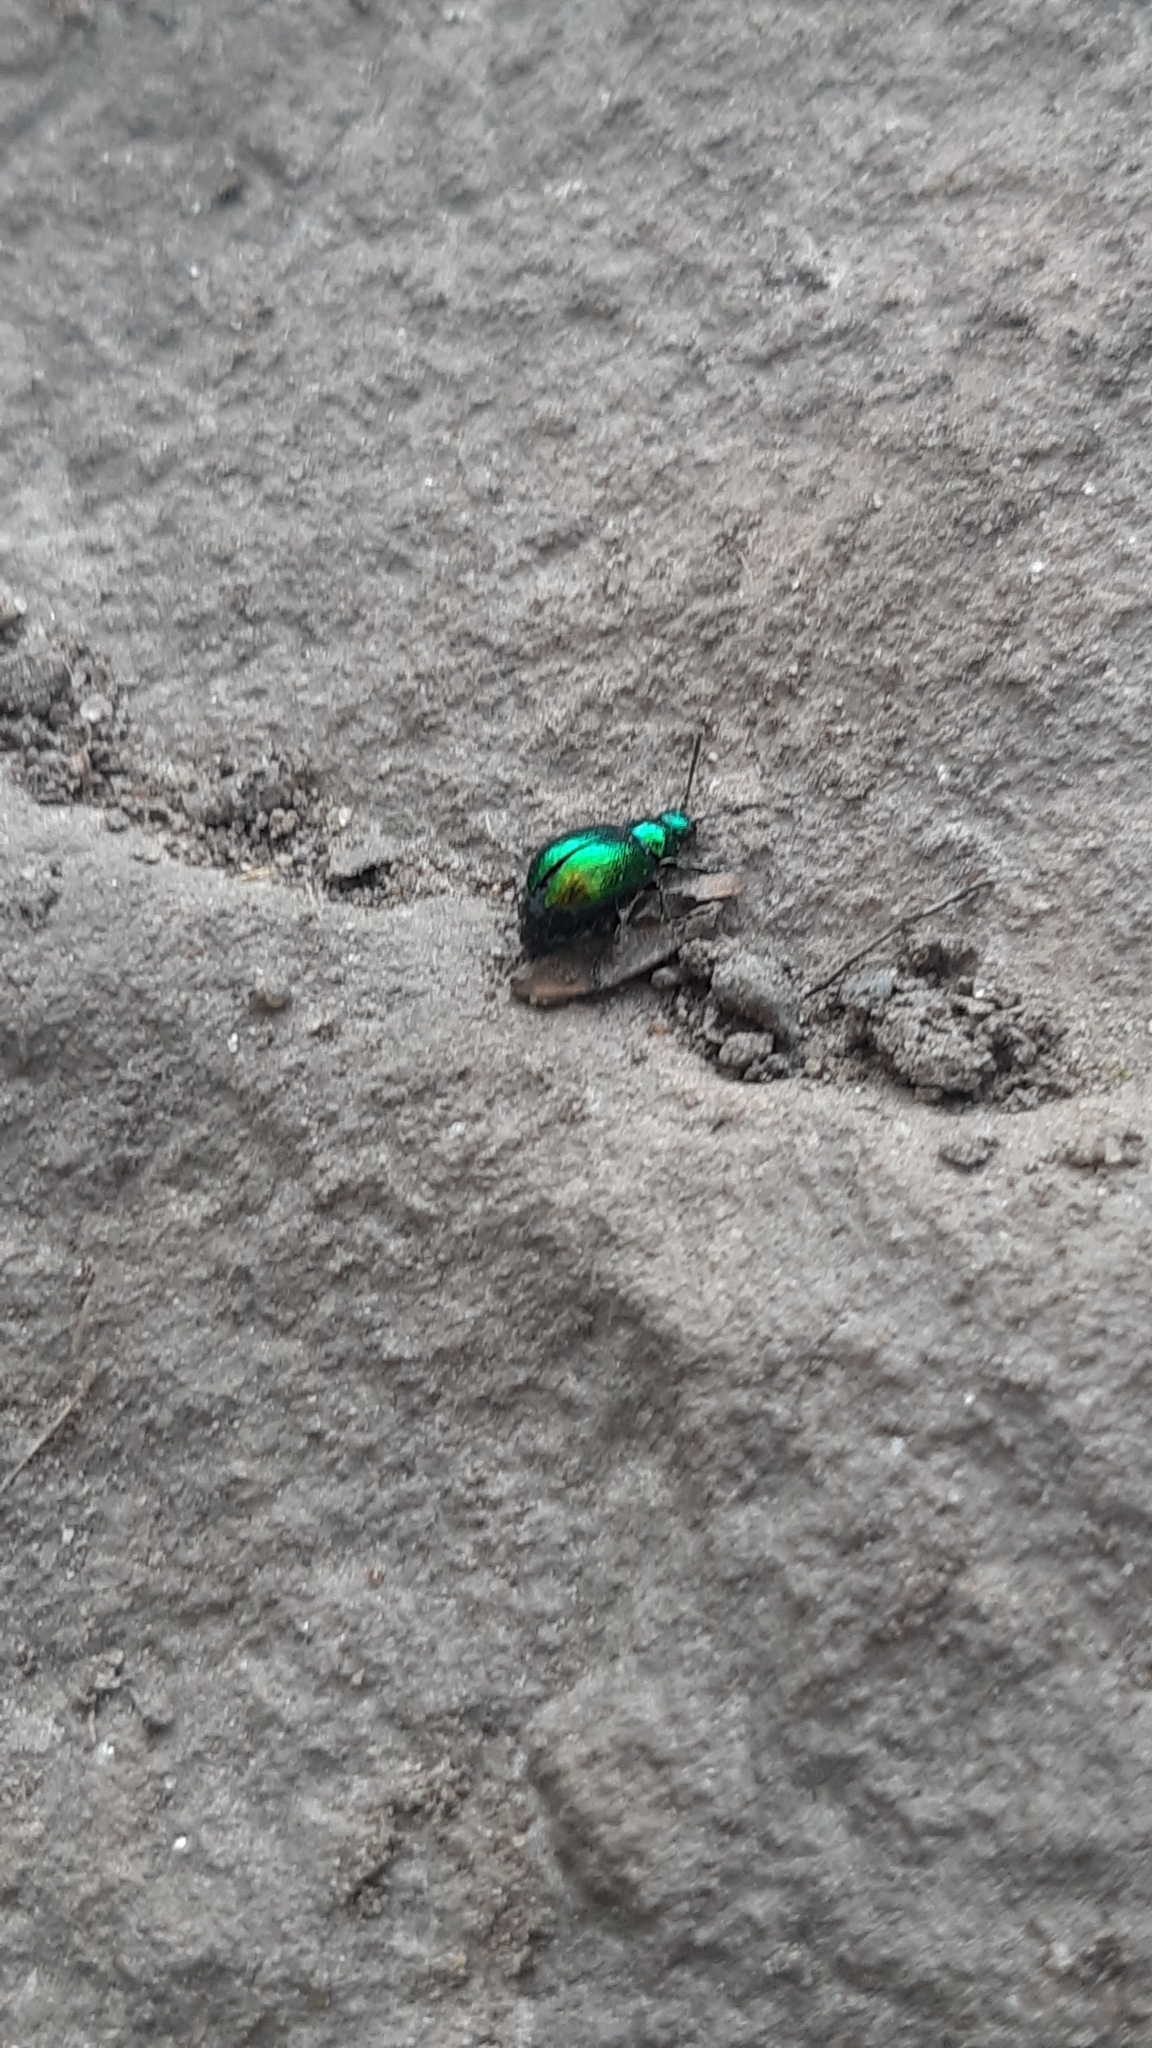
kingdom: Animalia
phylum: Arthropoda
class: Insecta
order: Coleoptera
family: Chrysomelidae
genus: Gastrophysa
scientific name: Gastrophysa viridula
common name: Green dock beetle
